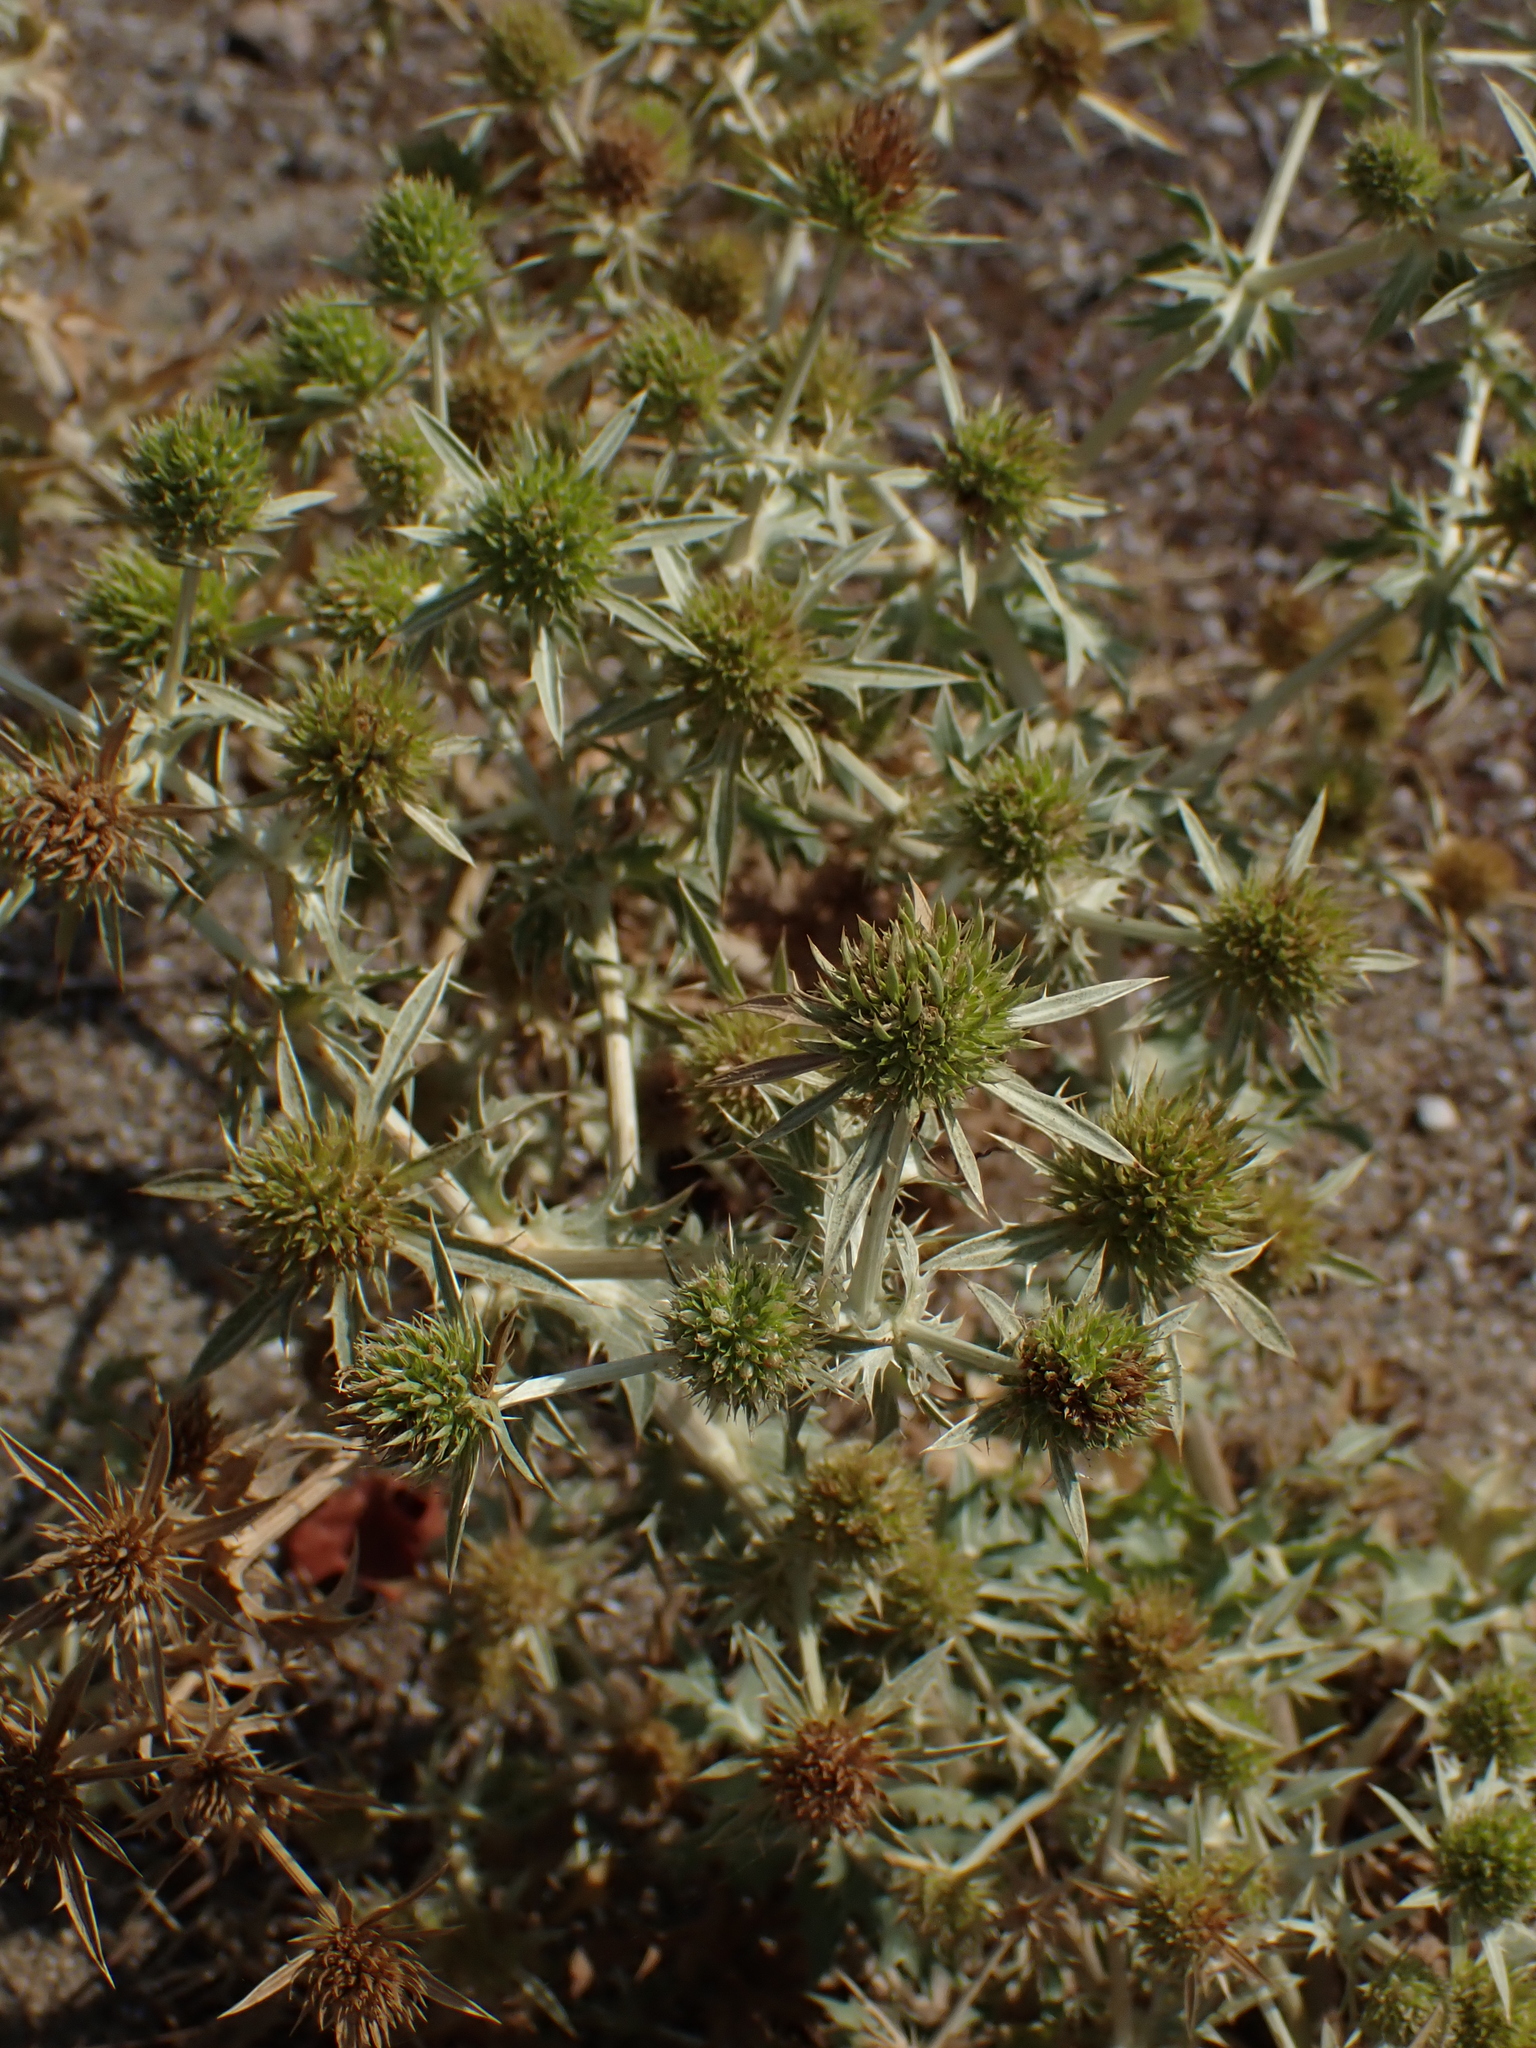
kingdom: Plantae
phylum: Tracheophyta
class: Magnoliopsida
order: Apiales
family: Apiaceae
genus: Eryngium
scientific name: Eryngium campestre
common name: Field eryngo
